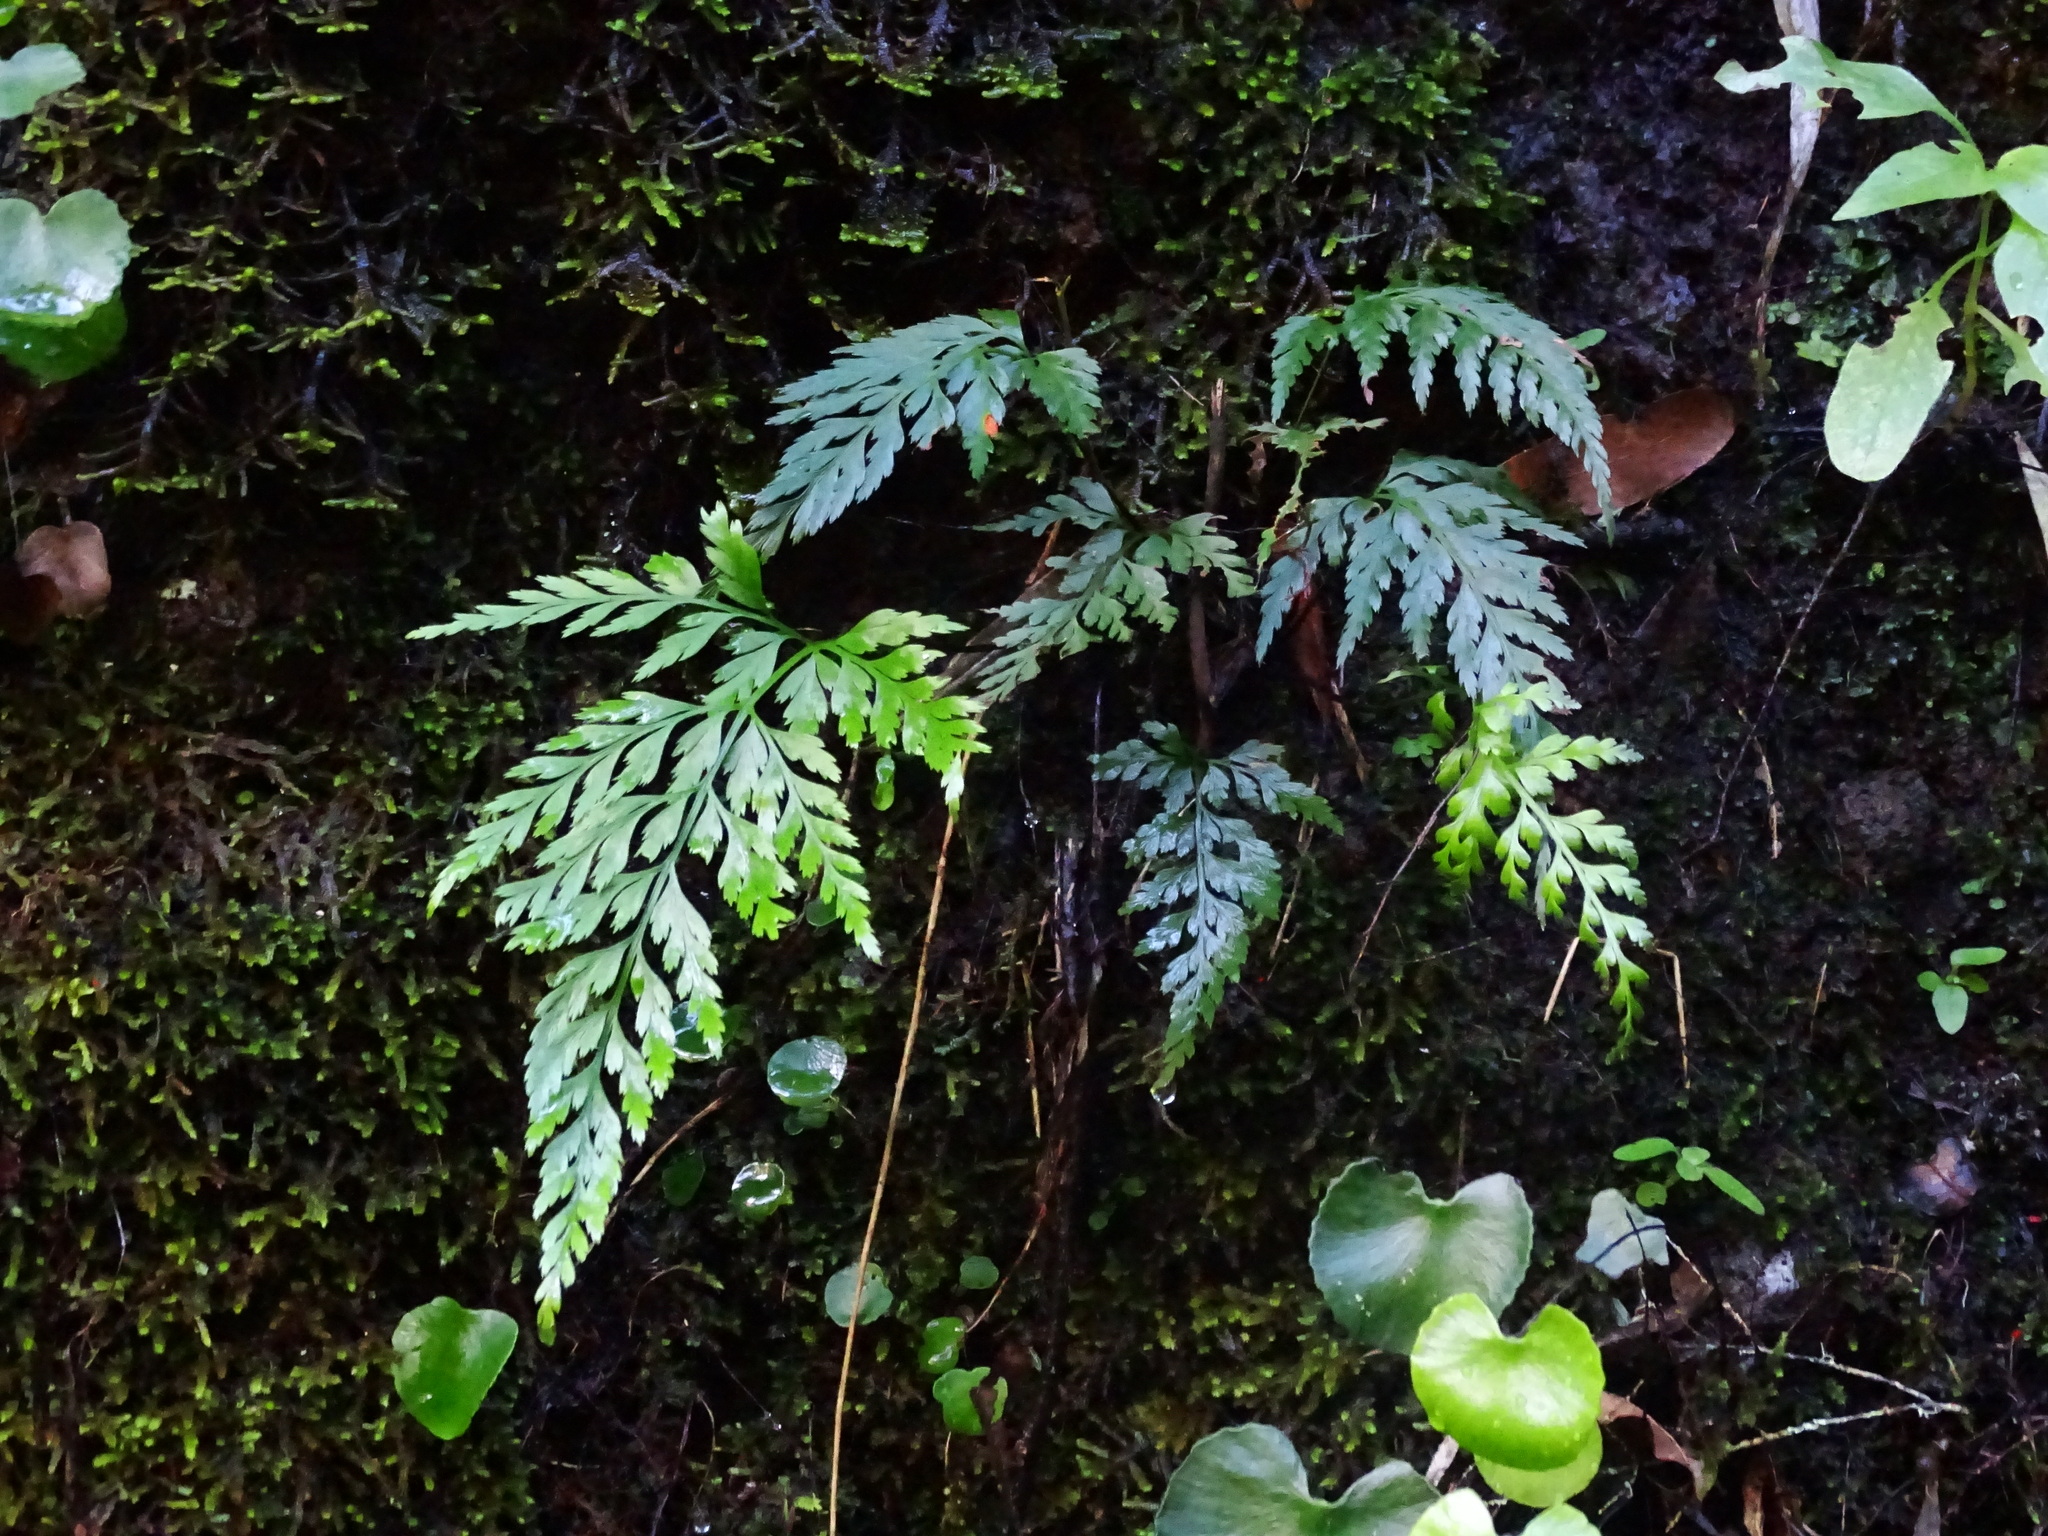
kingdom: Plantae
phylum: Tracheophyta
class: Polypodiopsida
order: Polypodiales
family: Aspleniaceae
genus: Asplenium
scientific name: Asplenium onopteris
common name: Irish spleenwort
